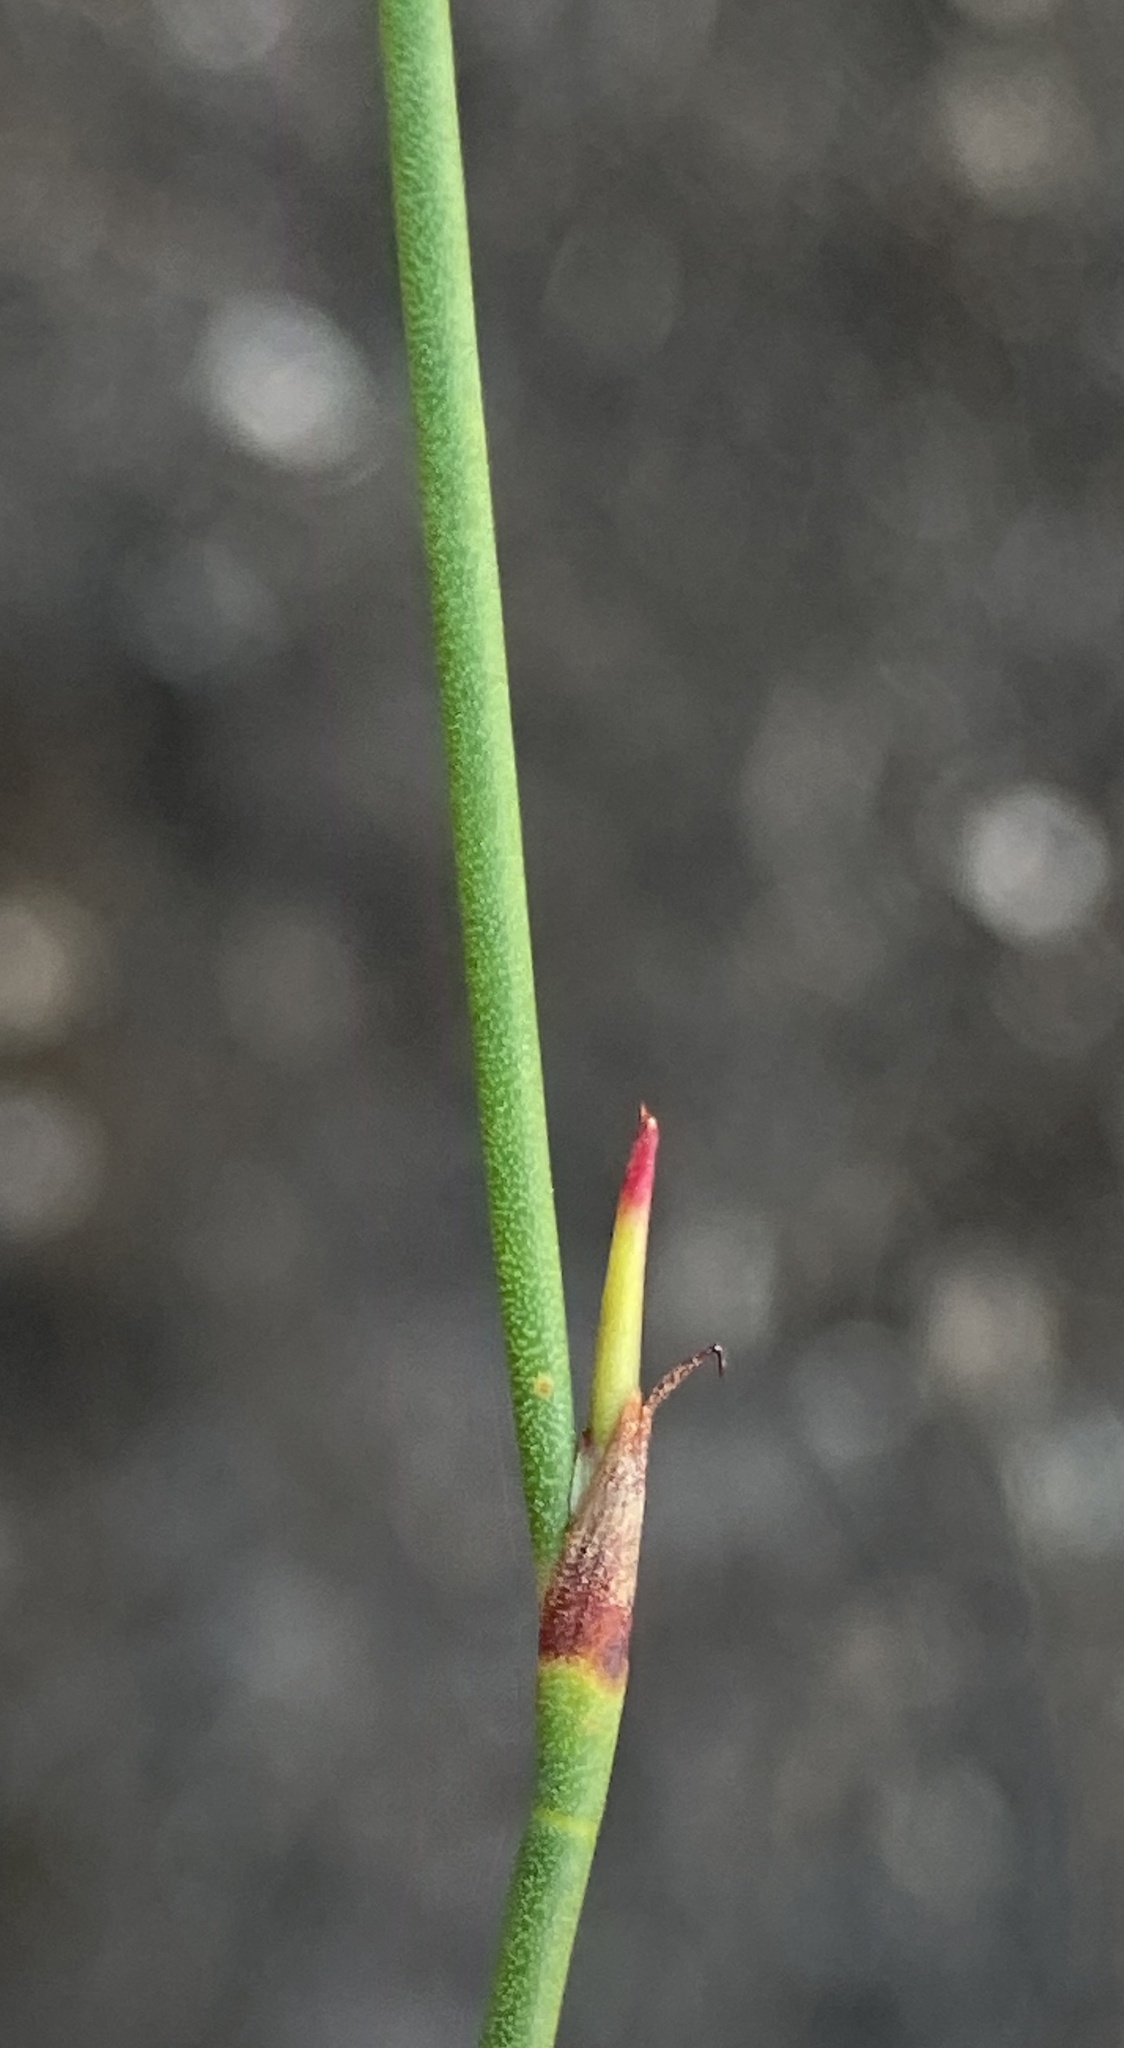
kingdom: Plantae
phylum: Tracheophyta
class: Liliopsida
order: Poales
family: Restionaceae
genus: Mastersiella
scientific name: Mastersiella purpurea
